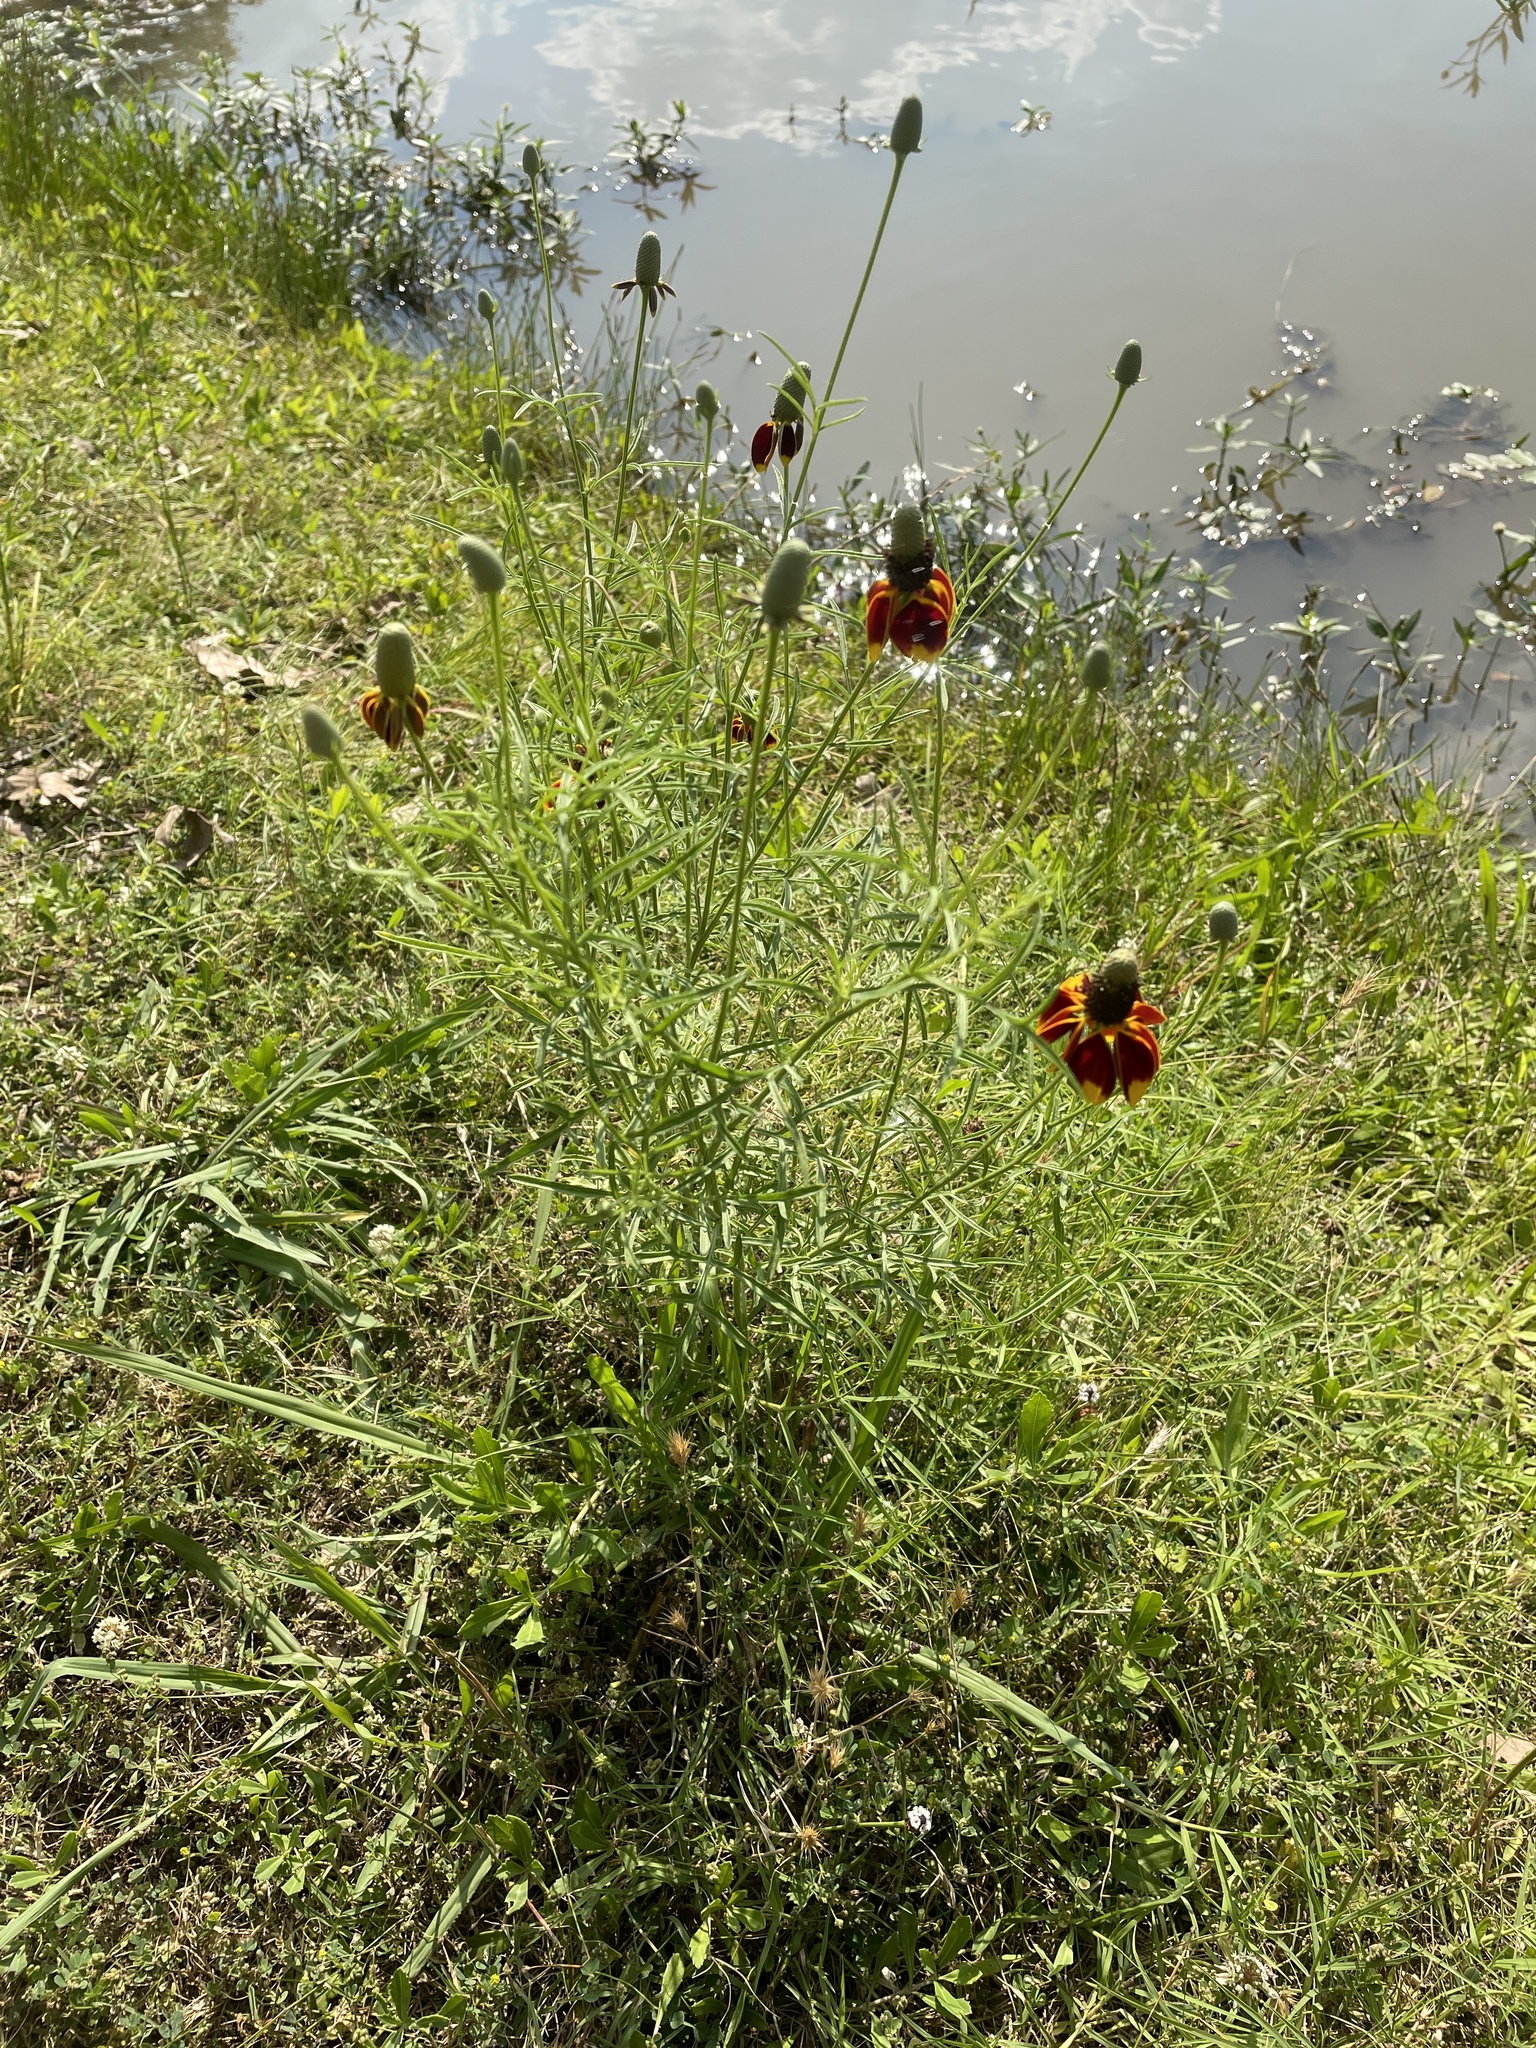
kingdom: Plantae
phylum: Tracheophyta
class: Magnoliopsida
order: Asterales
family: Asteraceae
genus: Ratibida
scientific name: Ratibida columnifera
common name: Prairie coneflower
